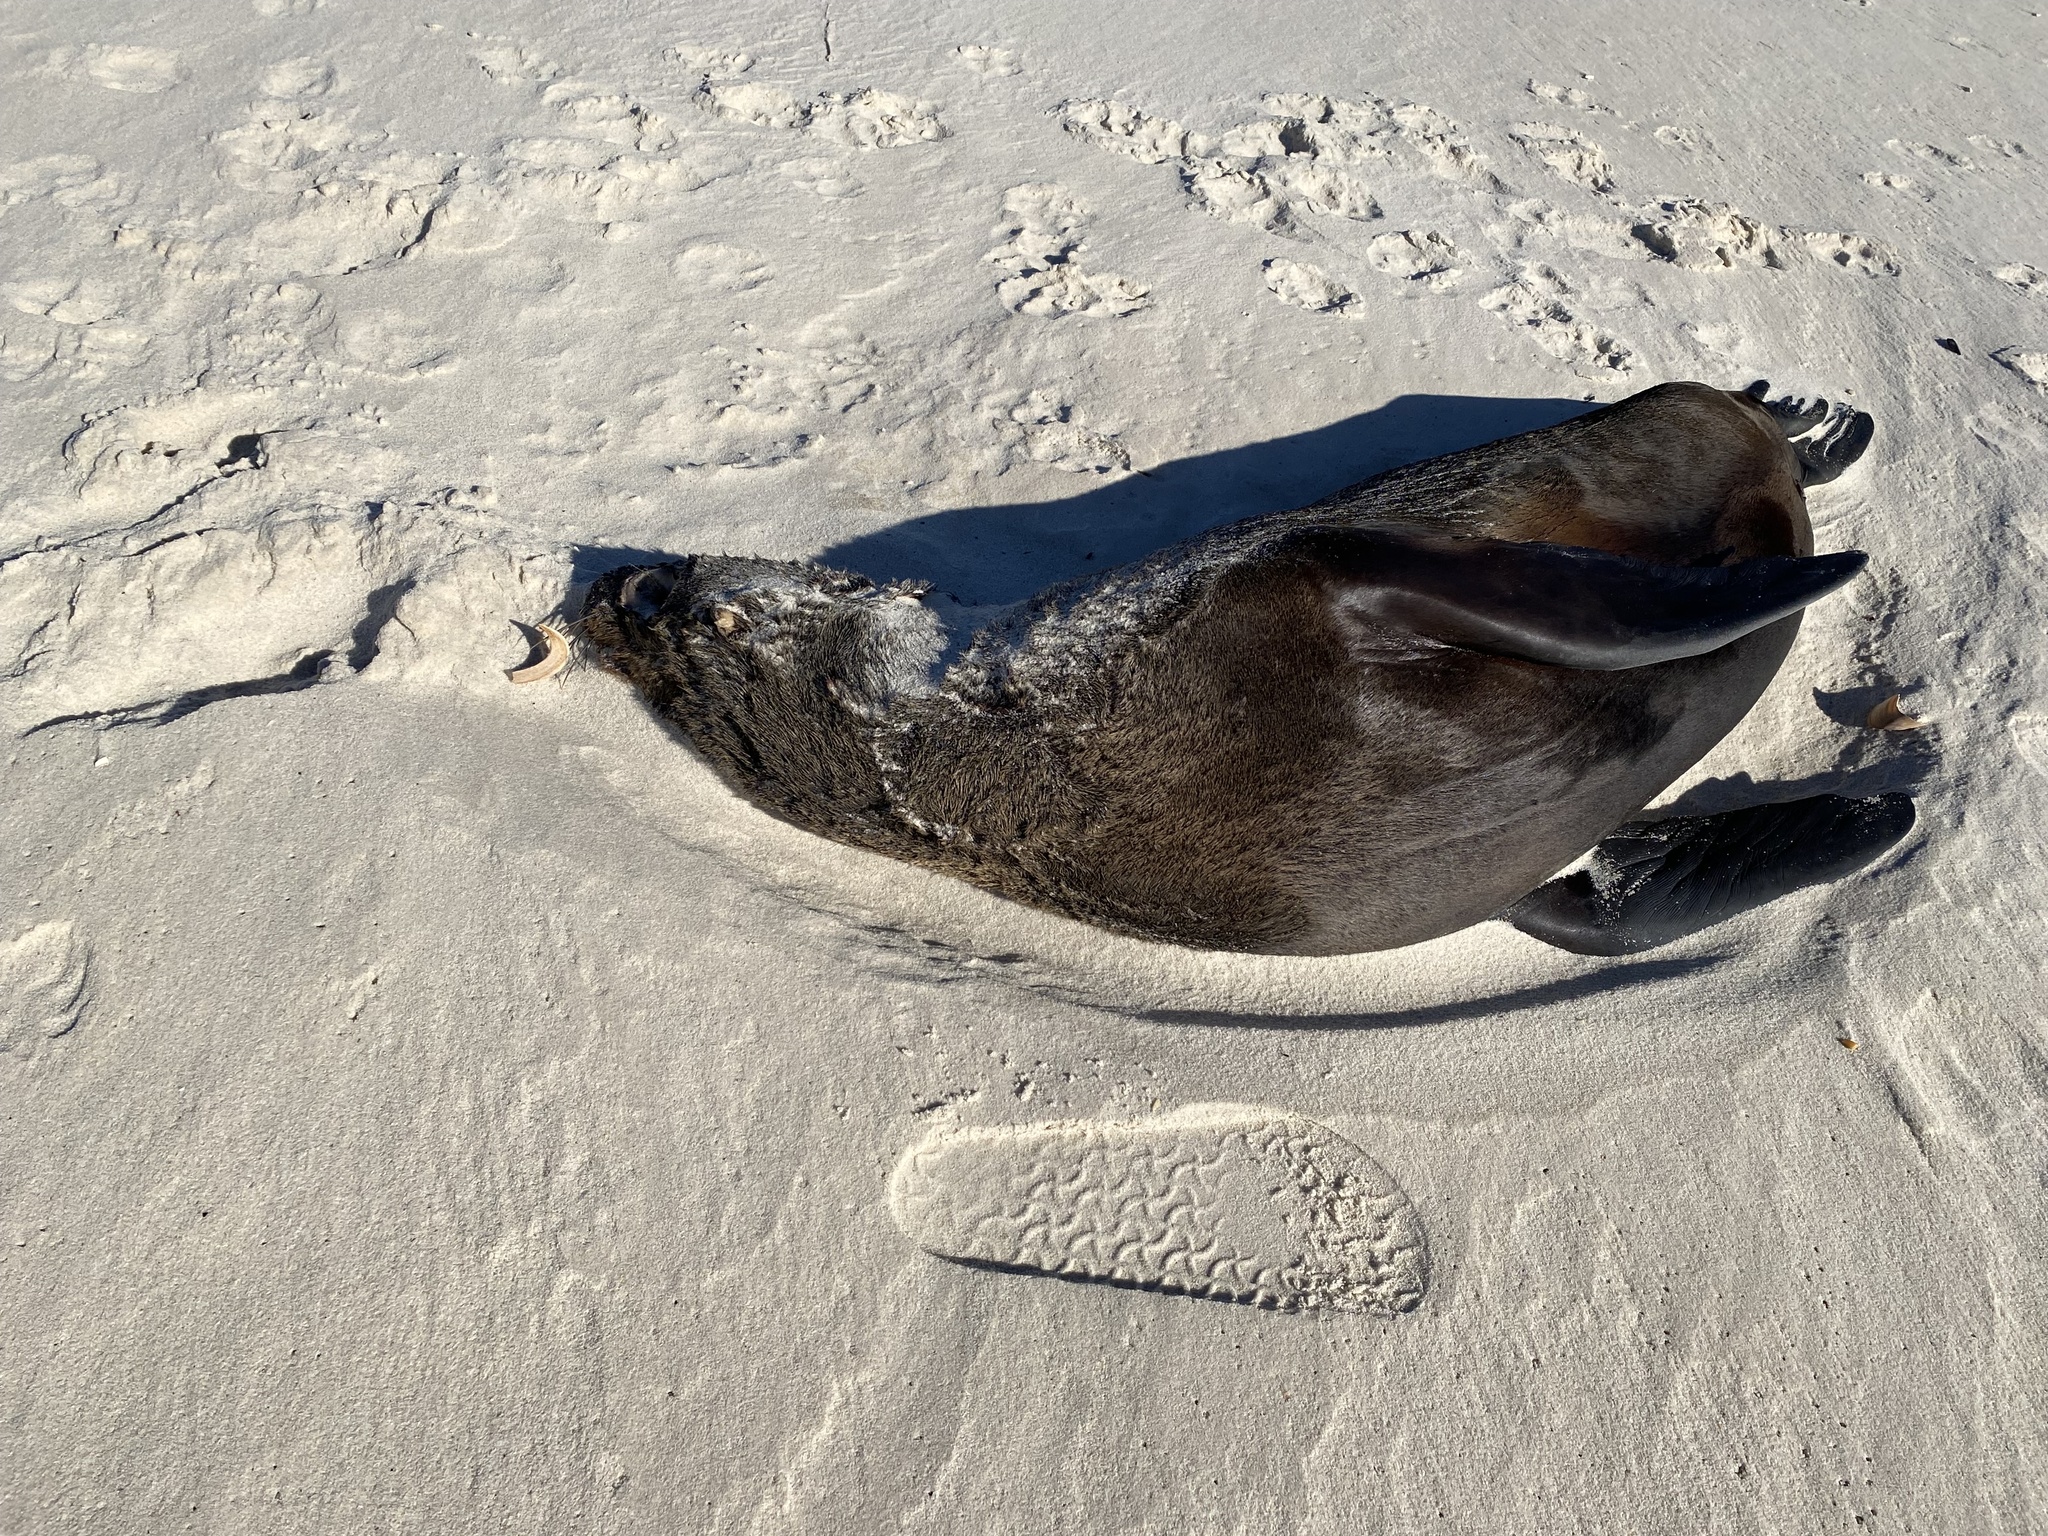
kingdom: Animalia
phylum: Chordata
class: Mammalia
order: Carnivora
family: Otariidae
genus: Arctocephalus
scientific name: Arctocephalus pusillus
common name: Brown fur seal
